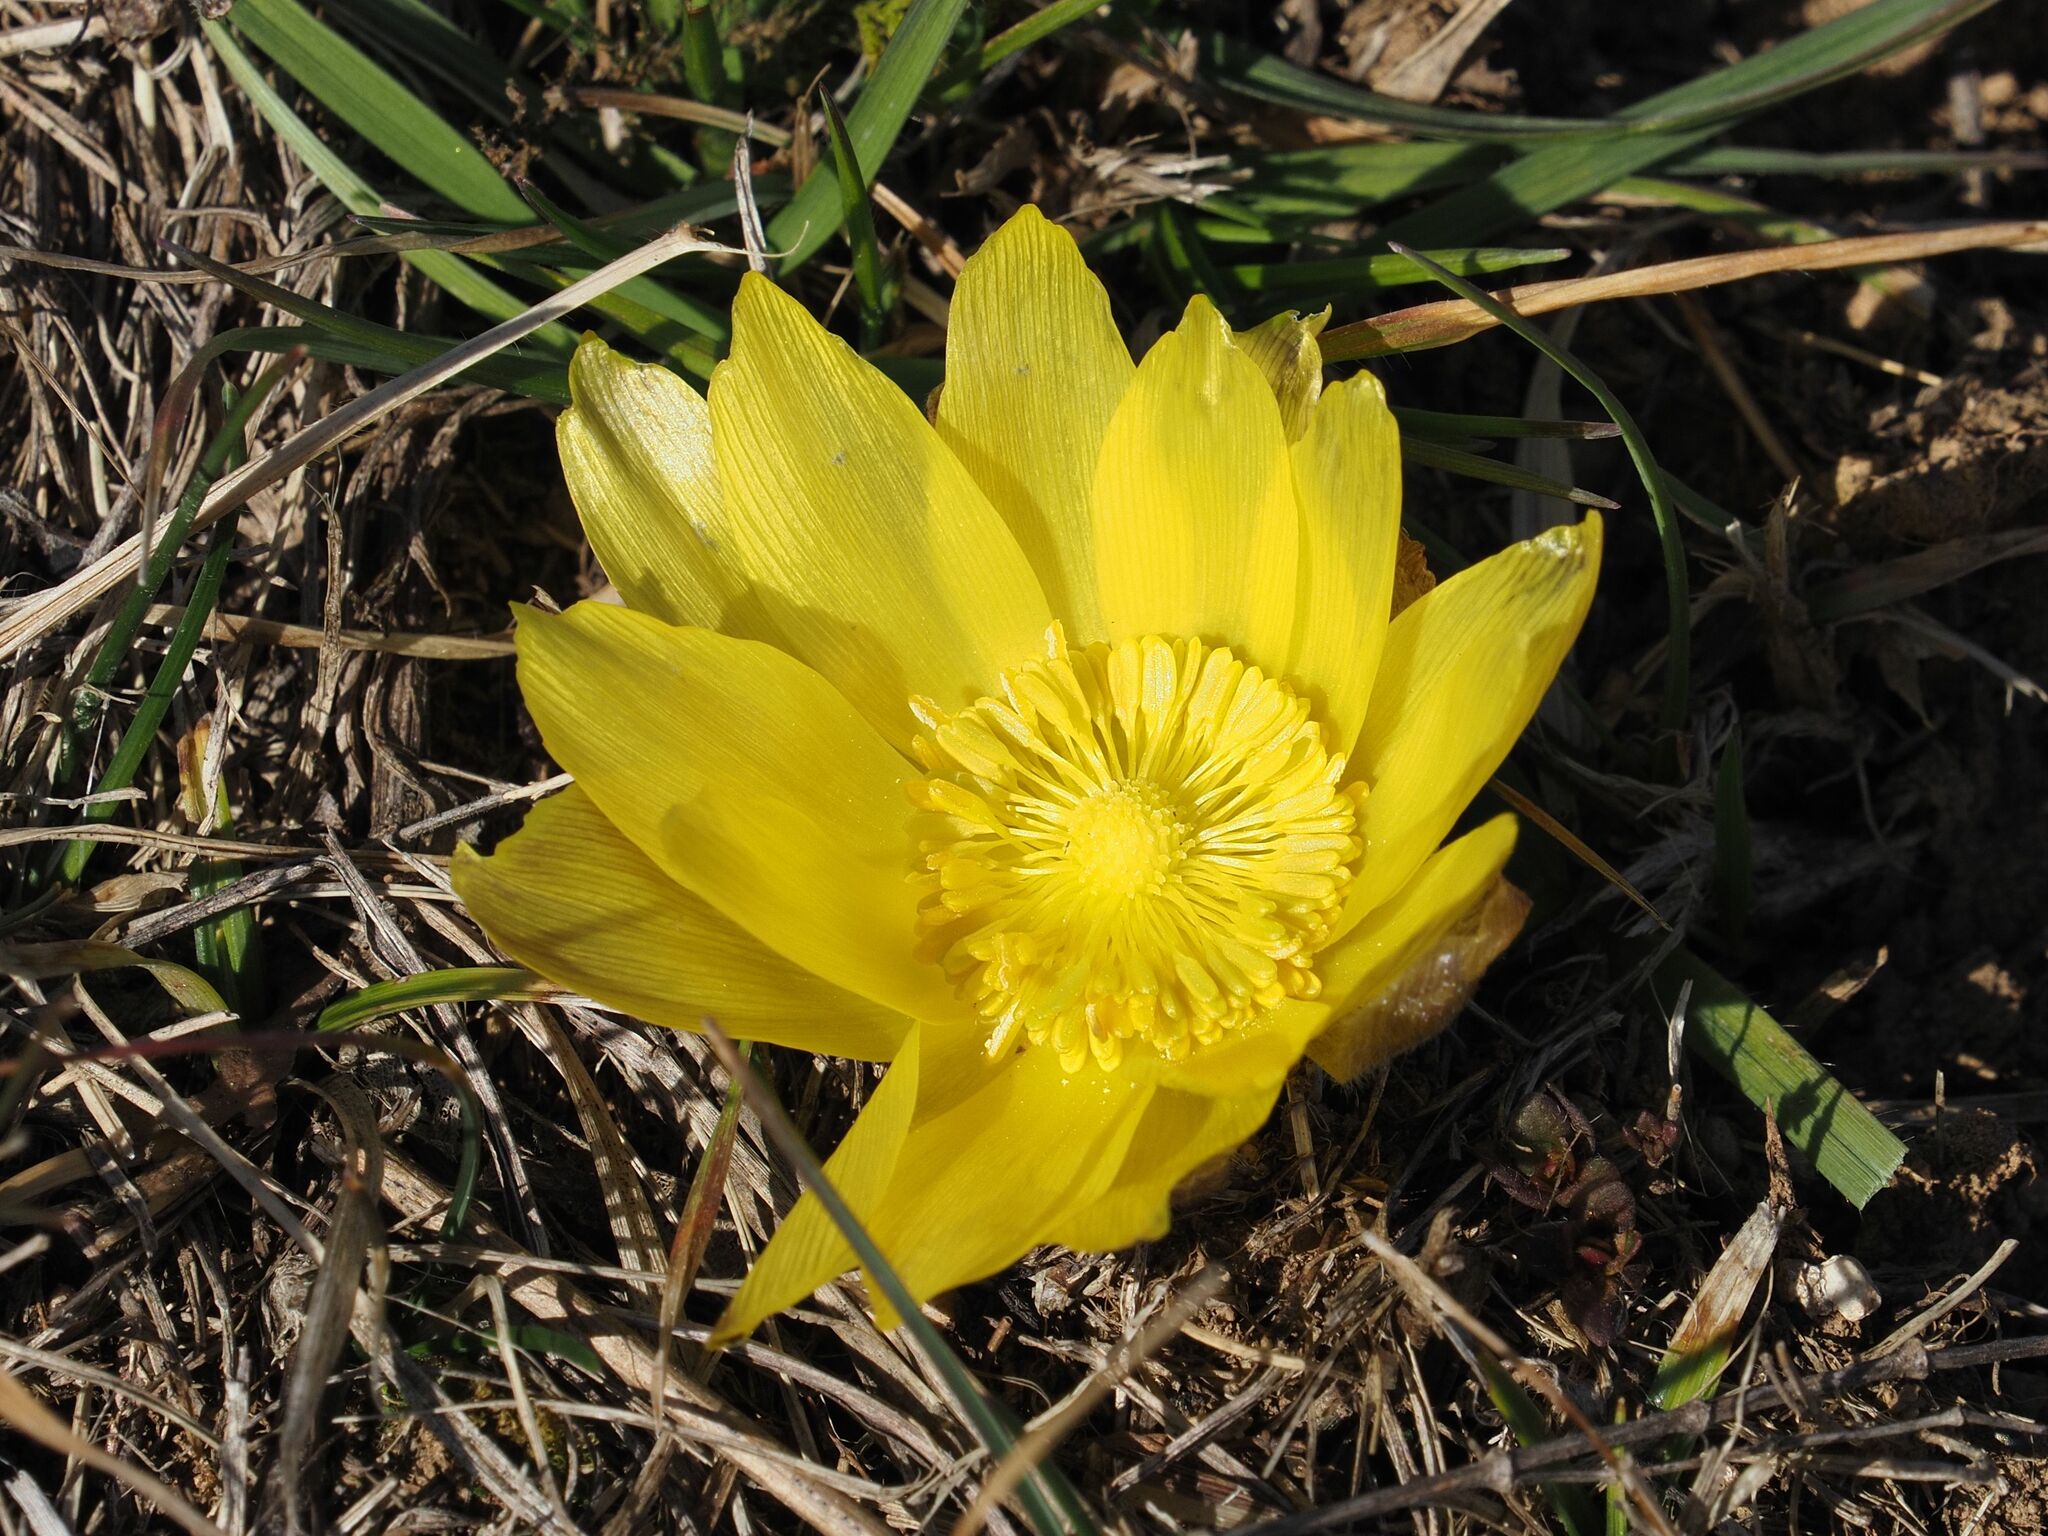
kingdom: Plantae
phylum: Tracheophyta
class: Magnoliopsida
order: Ranunculales
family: Ranunculaceae
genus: Adonis
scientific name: Adonis vernalis
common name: Yellow pheasants-eye
